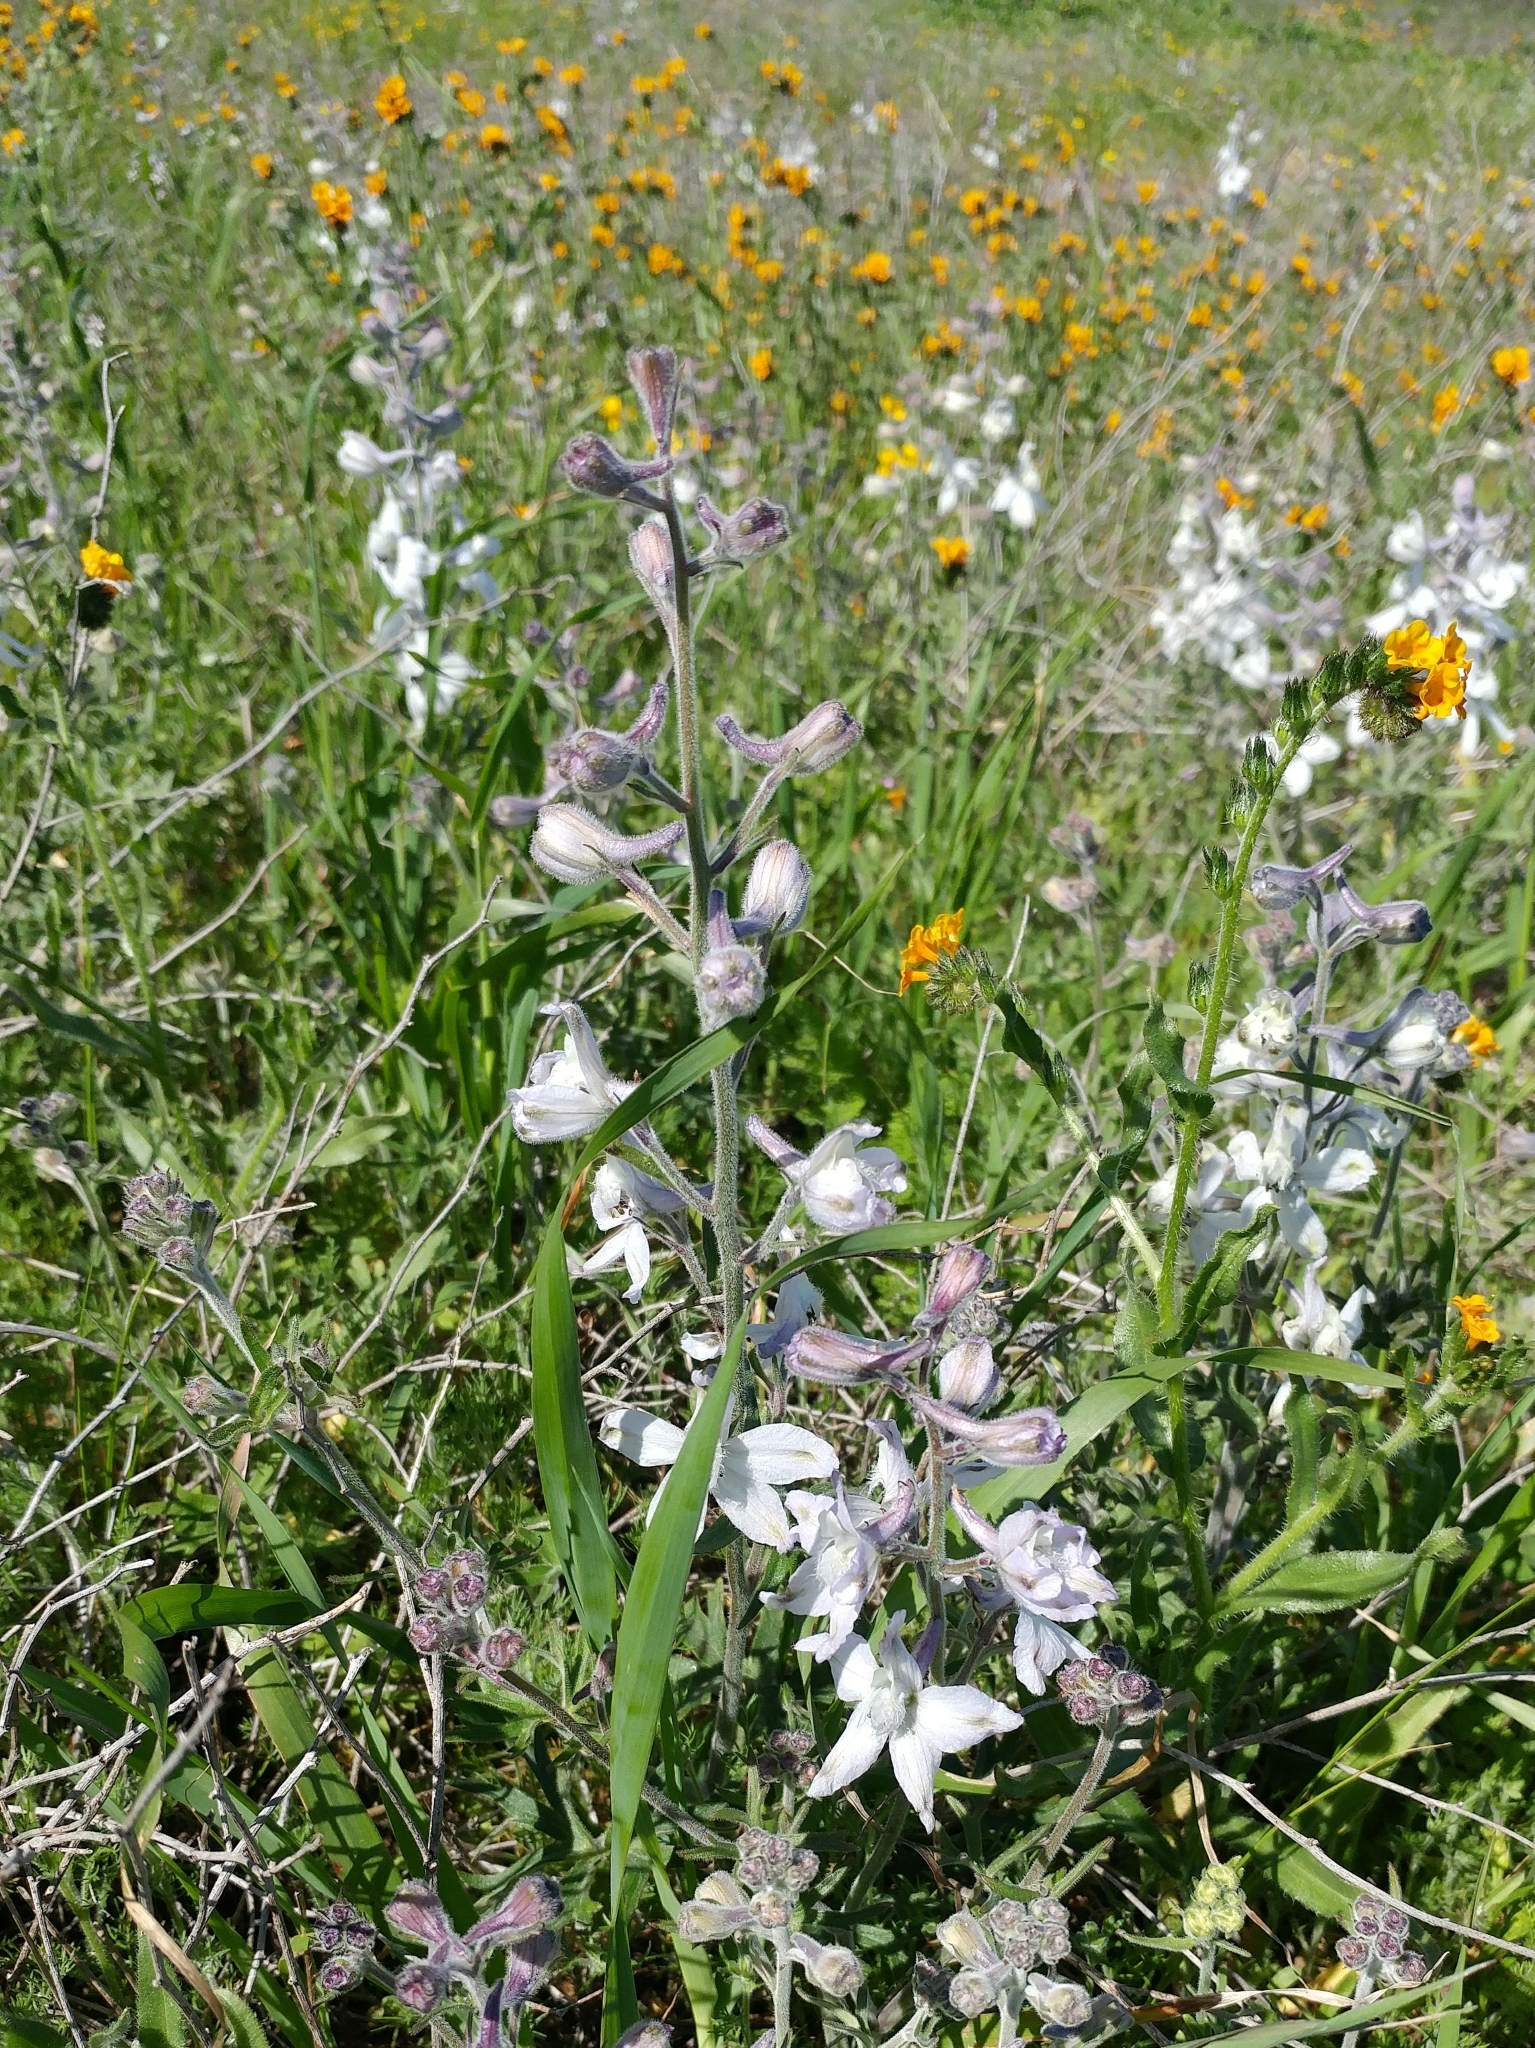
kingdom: Plantae
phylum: Tracheophyta
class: Magnoliopsida
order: Ranunculales
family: Ranunculaceae
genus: Delphinium
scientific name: Delphinium variegatum
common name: Royal larkspur
